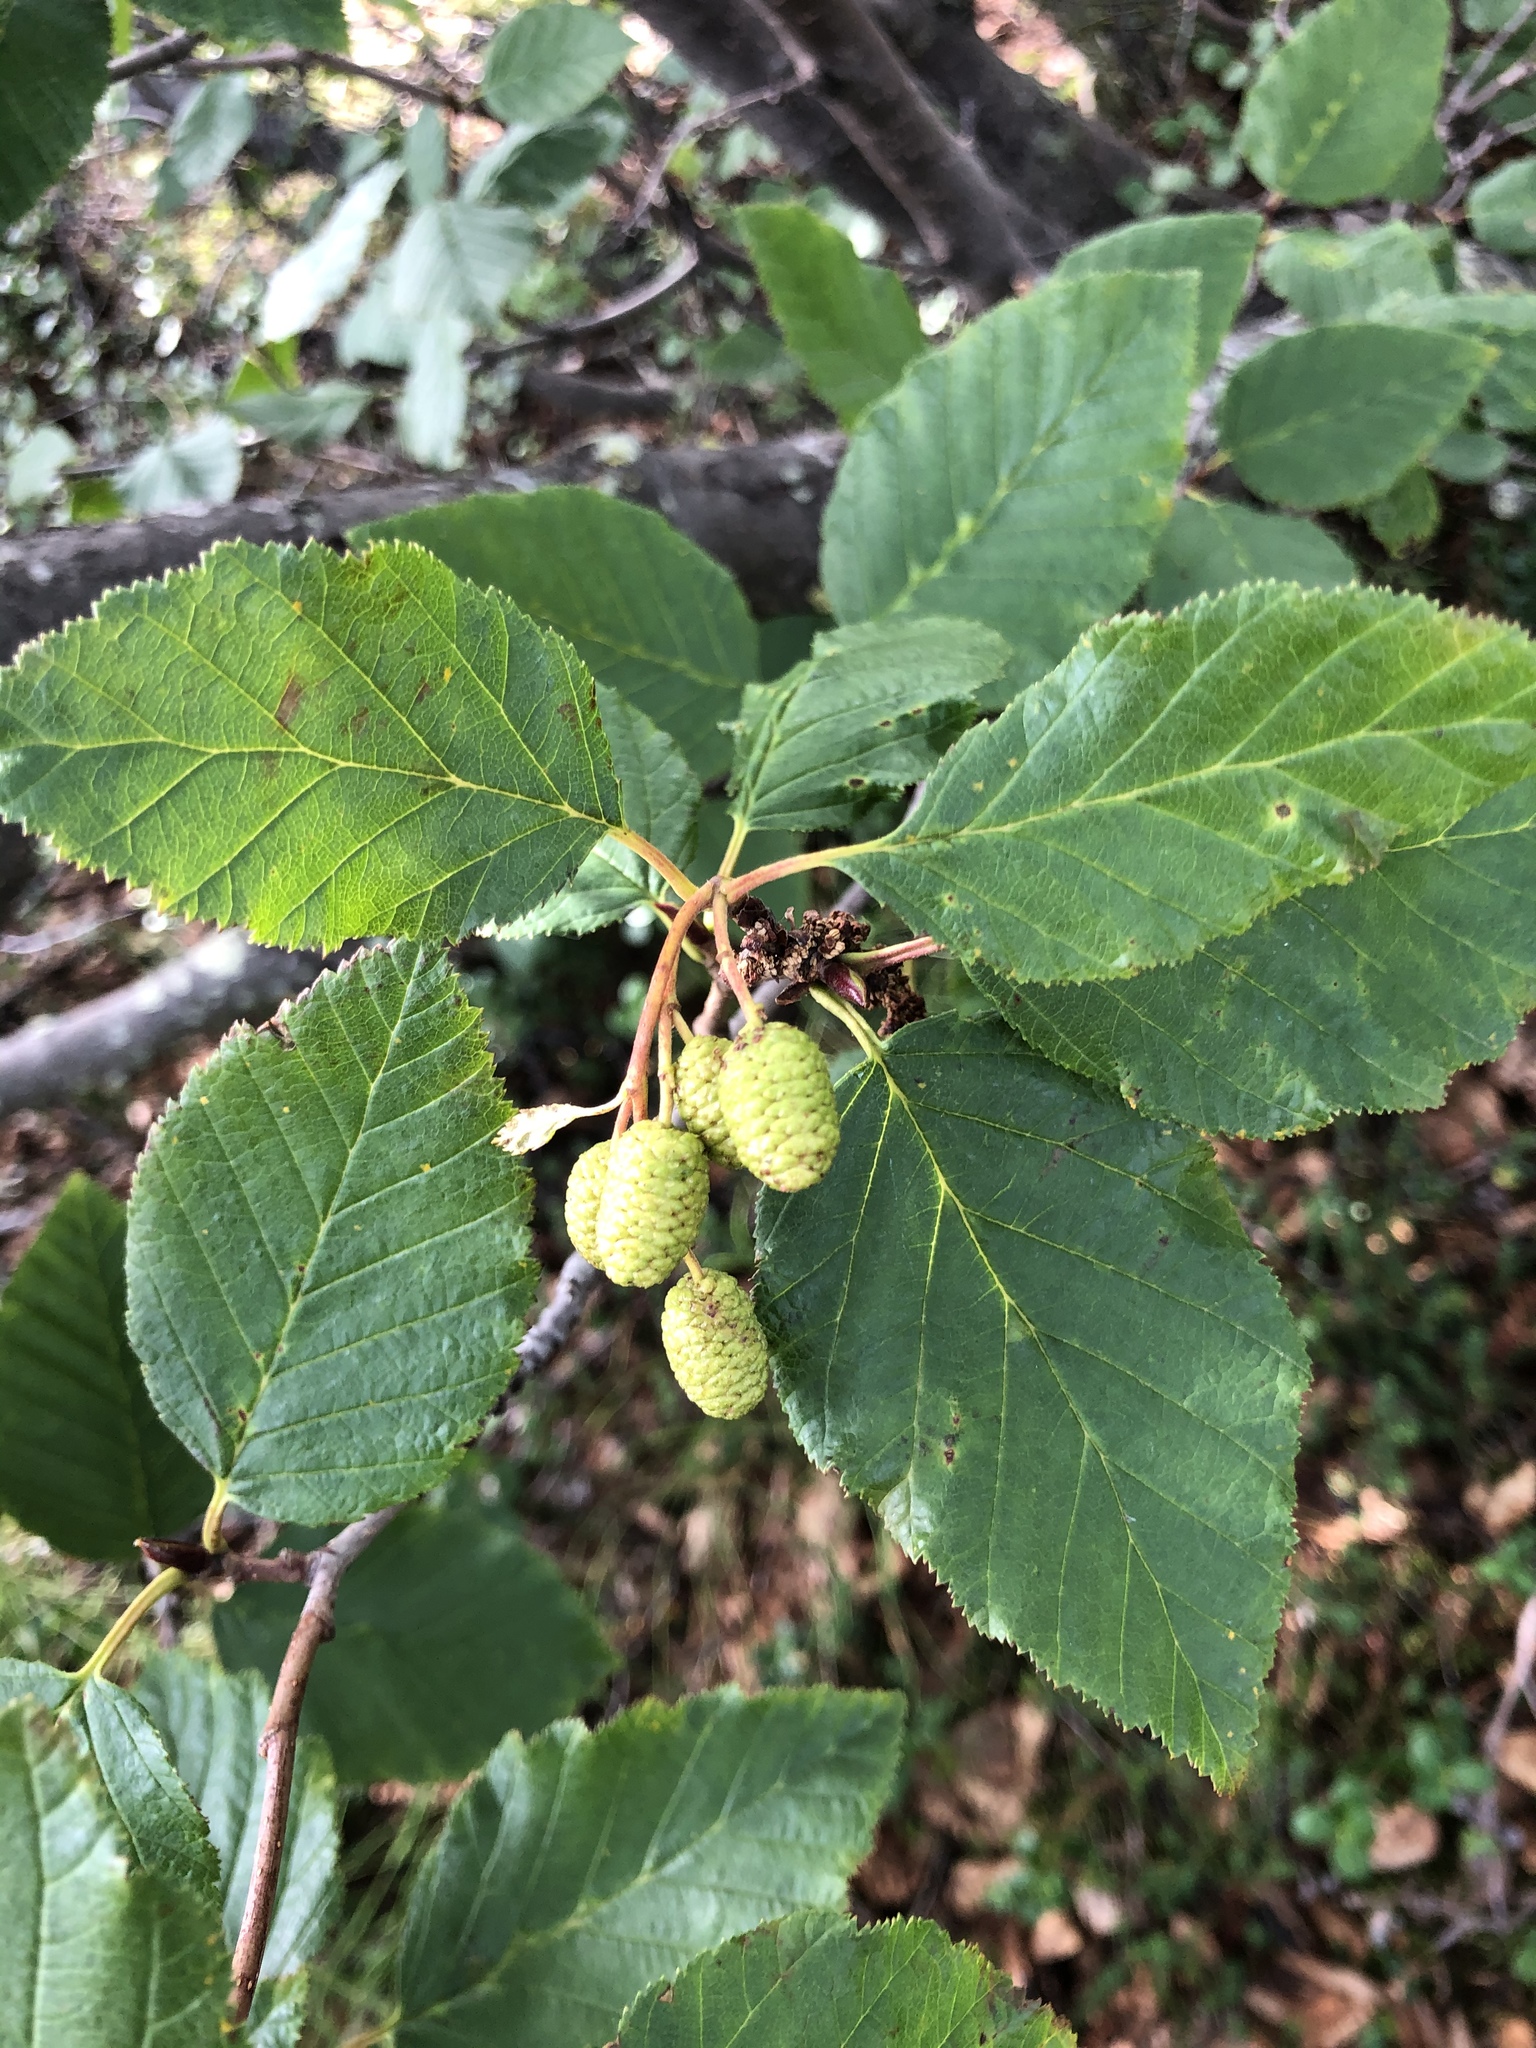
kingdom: Plantae
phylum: Tracheophyta
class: Magnoliopsida
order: Fagales
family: Betulaceae
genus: Alnus
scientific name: Alnus alnobetula
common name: Green alder
